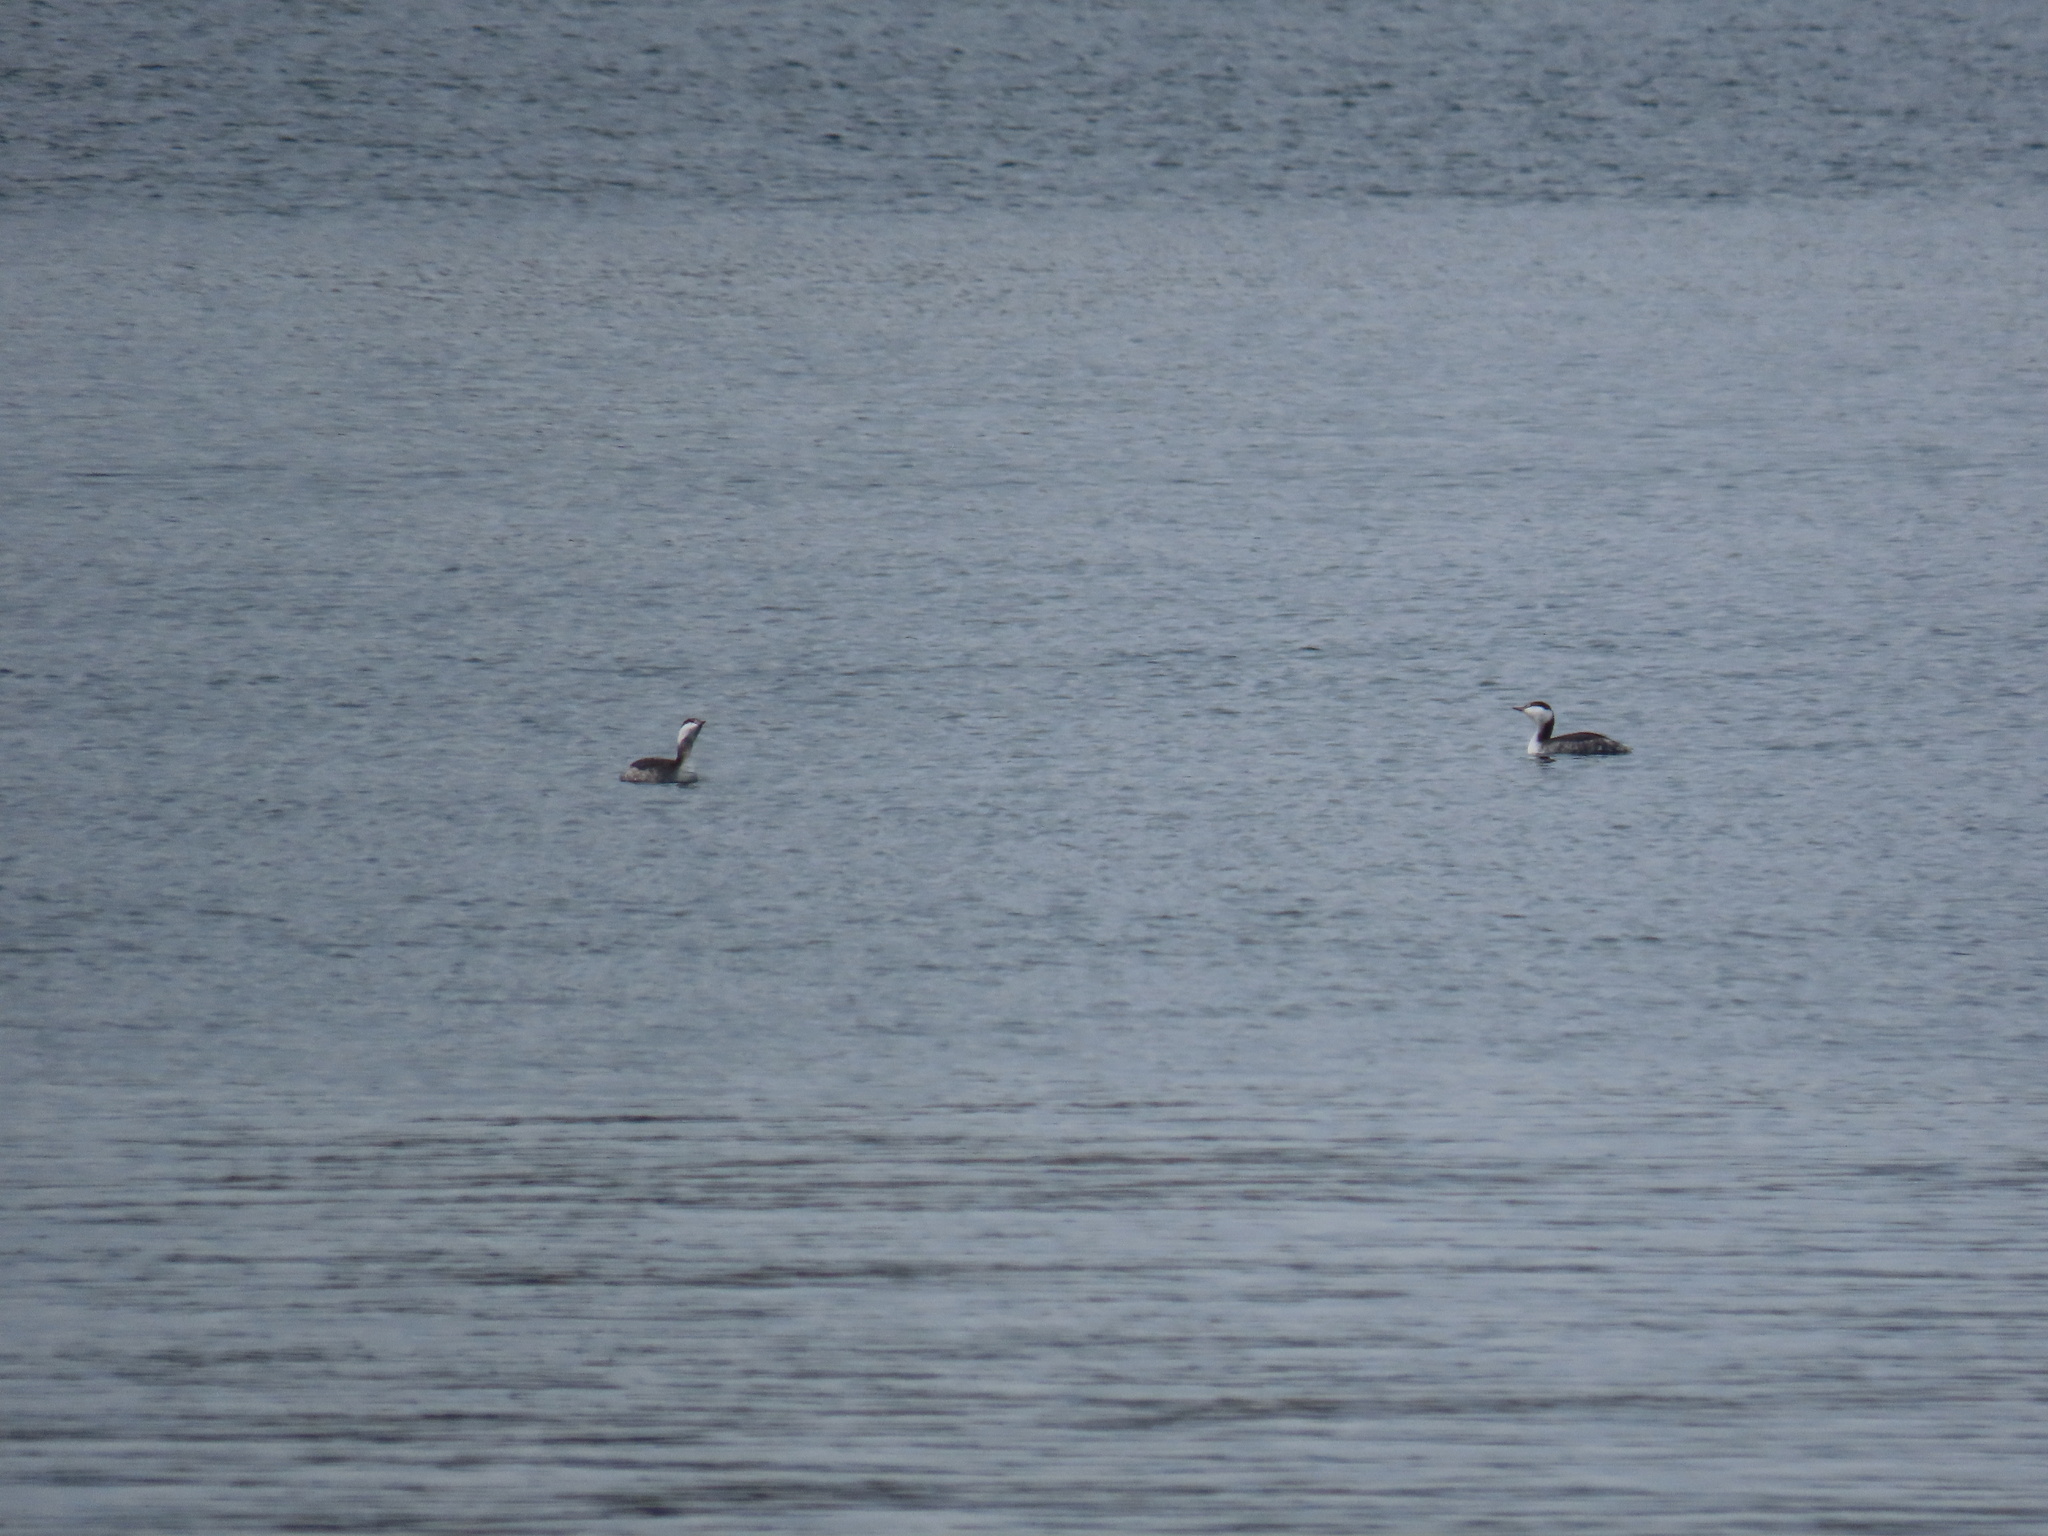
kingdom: Animalia
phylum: Chordata
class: Aves
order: Podicipediformes
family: Podicipedidae
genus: Podiceps
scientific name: Podiceps auritus
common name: Horned grebe
